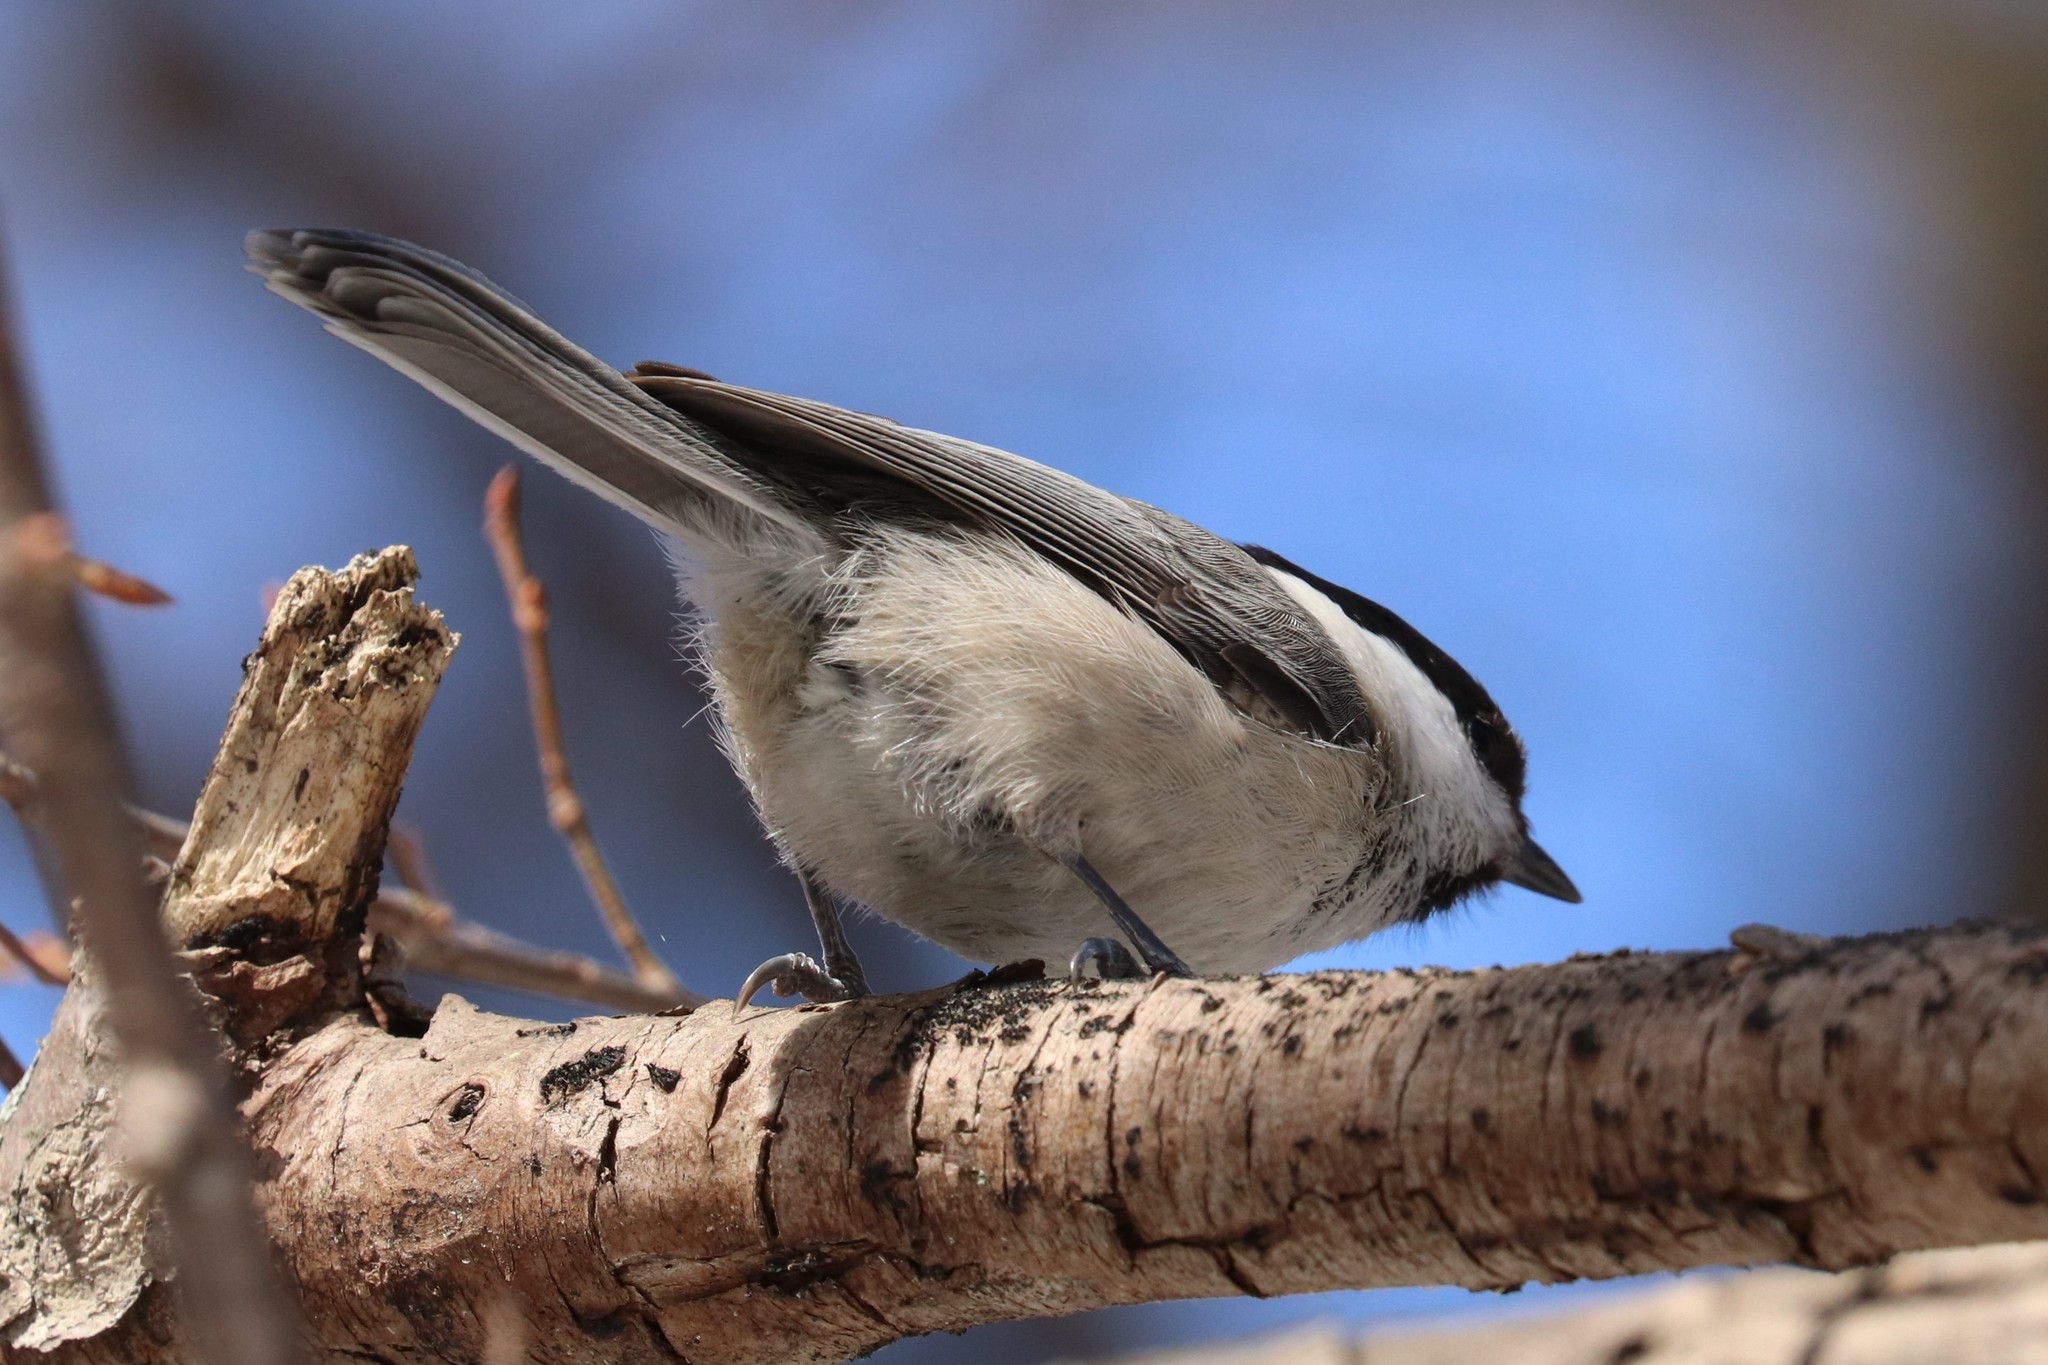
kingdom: Animalia
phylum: Chordata
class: Aves
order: Passeriformes
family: Paridae
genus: Poecile
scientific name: Poecile montanus
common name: Willow tit
